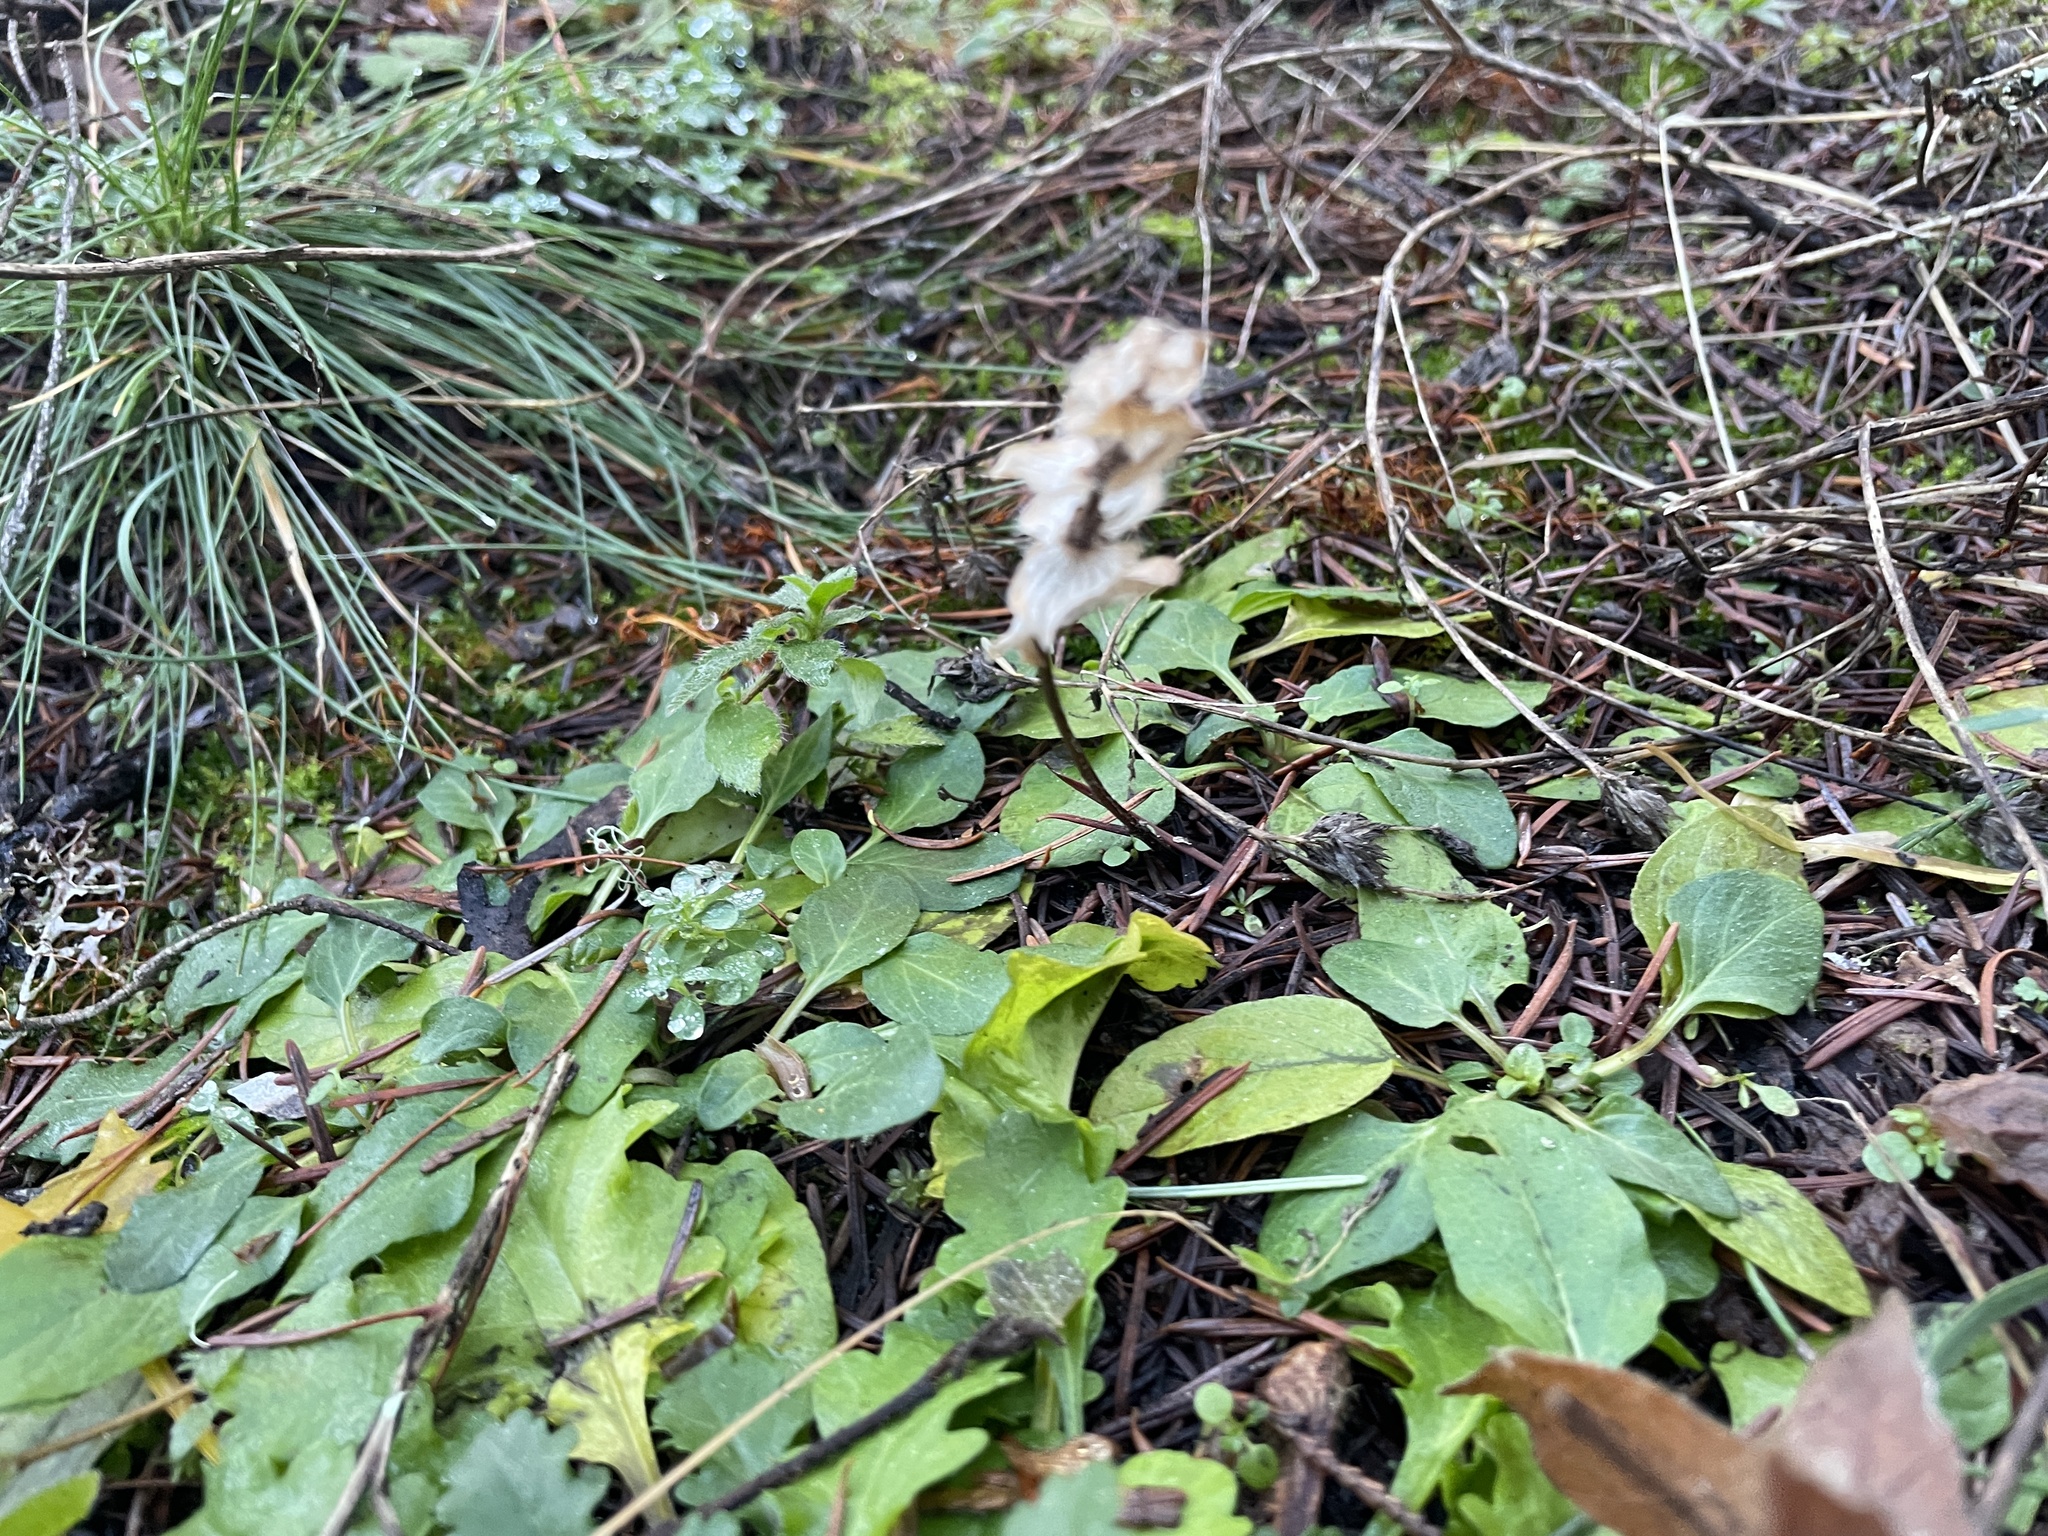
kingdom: Plantae
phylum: Tracheophyta
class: Magnoliopsida
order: Lamiales
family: Lamiaceae
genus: Prunella
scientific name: Prunella vulgaris
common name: Heal-all
